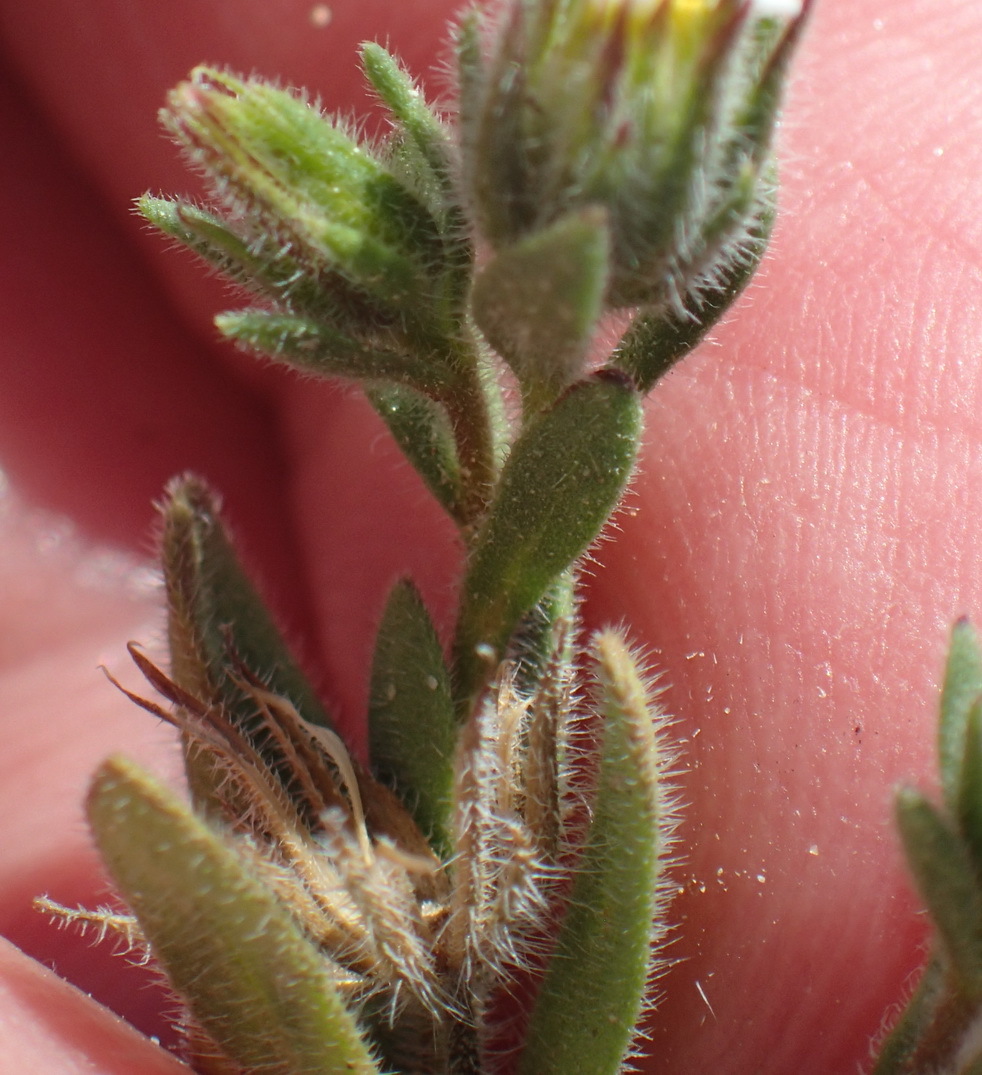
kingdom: Plantae
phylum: Tracheophyta
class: Magnoliopsida
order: Asterales
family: Asteraceae
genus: Amellus
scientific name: Amellus microglossus
